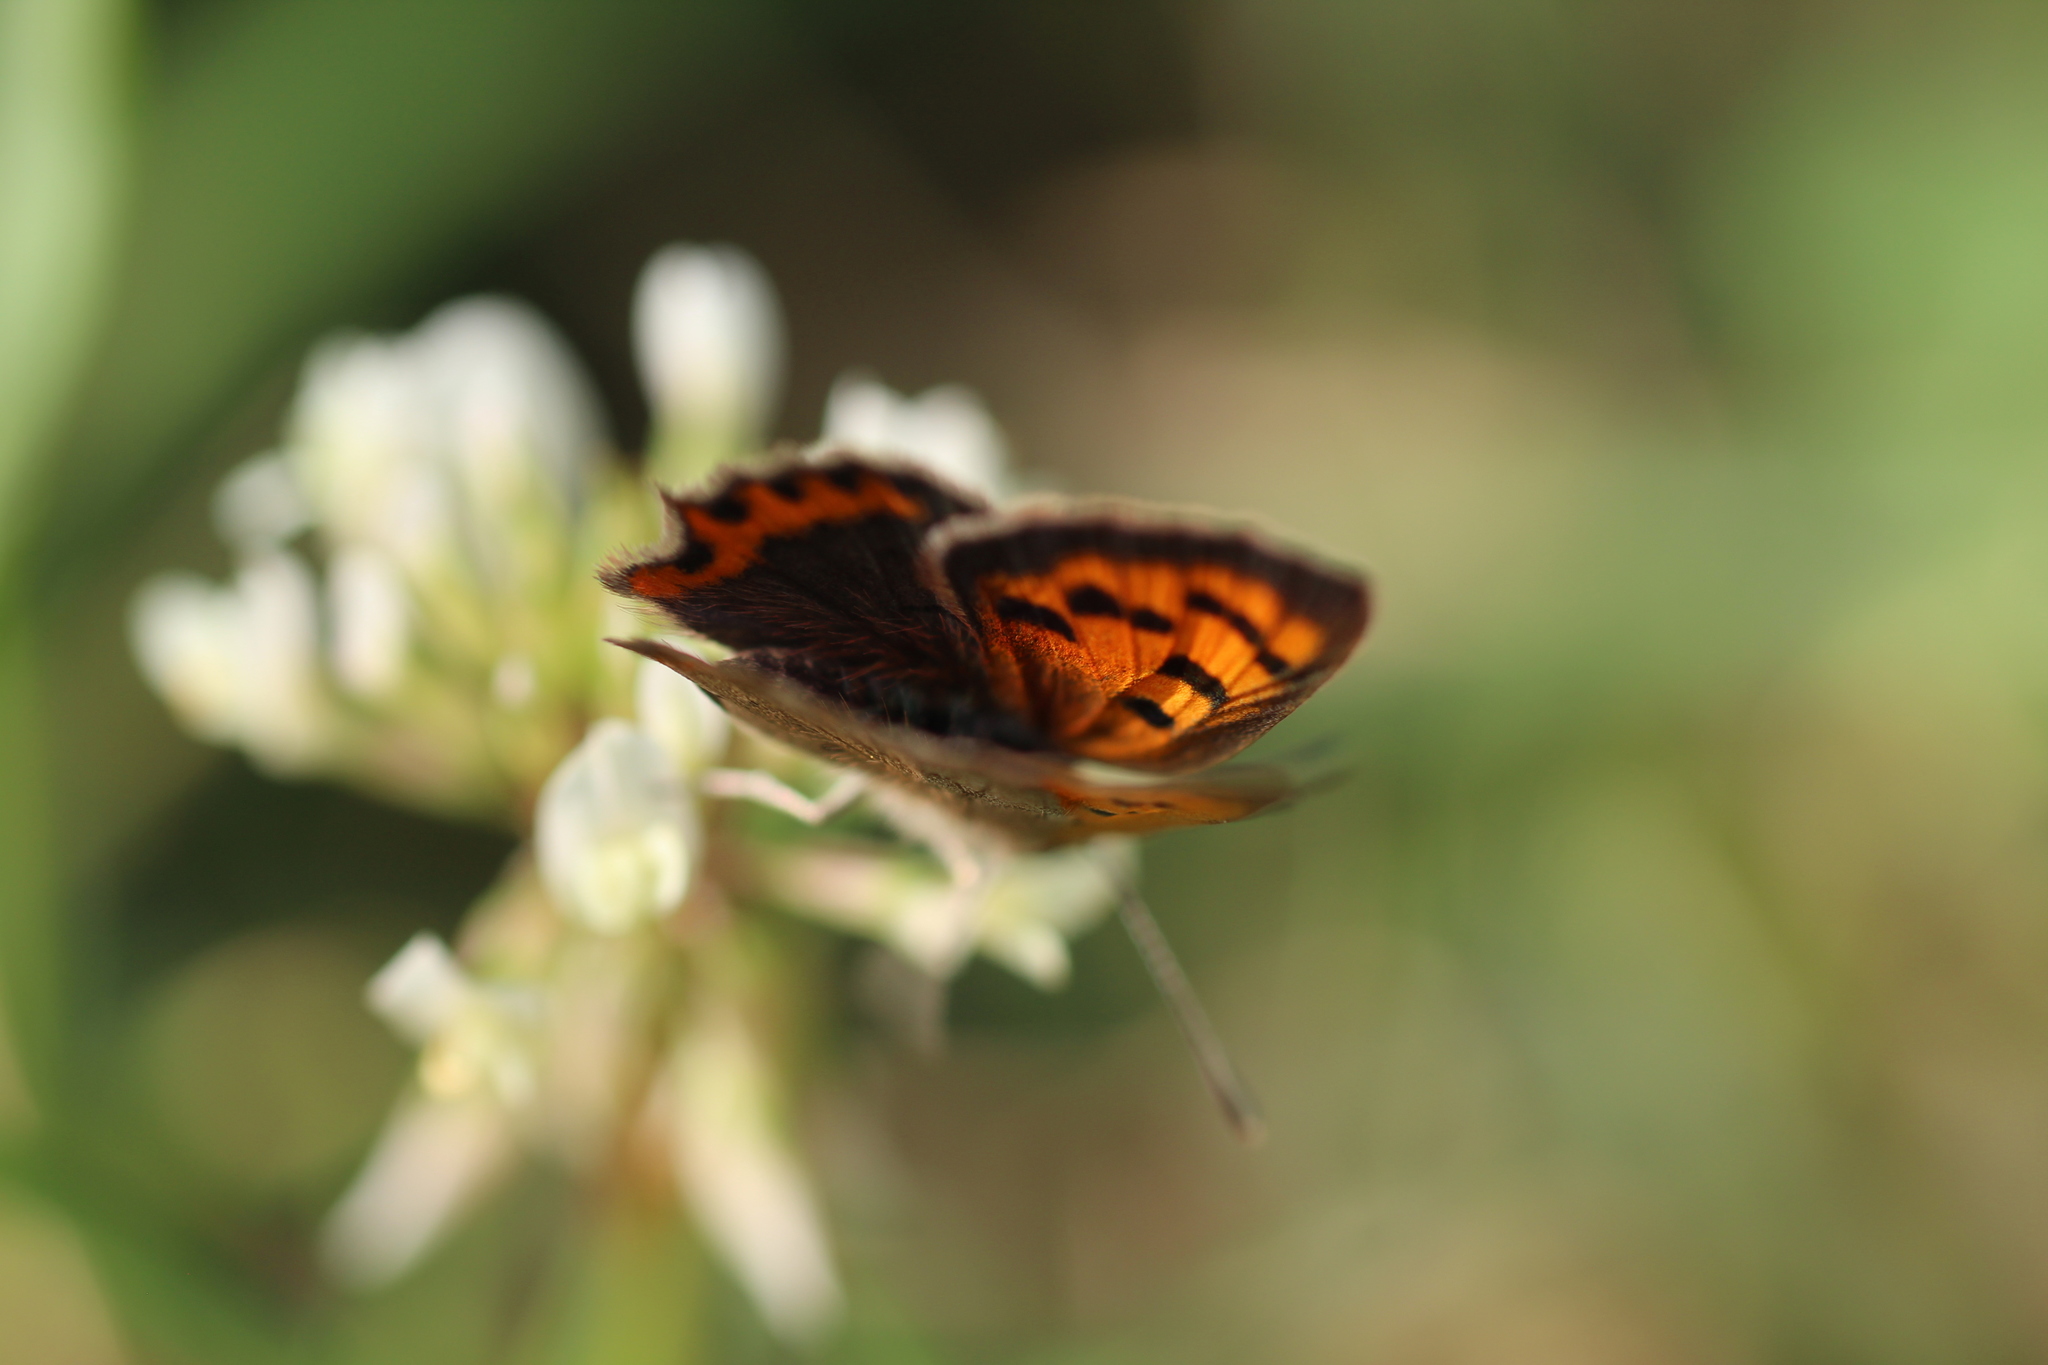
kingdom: Animalia
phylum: Arthropoda
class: Insecta
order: Lepidoptera
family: Lycaenidae
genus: Lycaena
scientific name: Lycaena phlaeas
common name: Small copper
